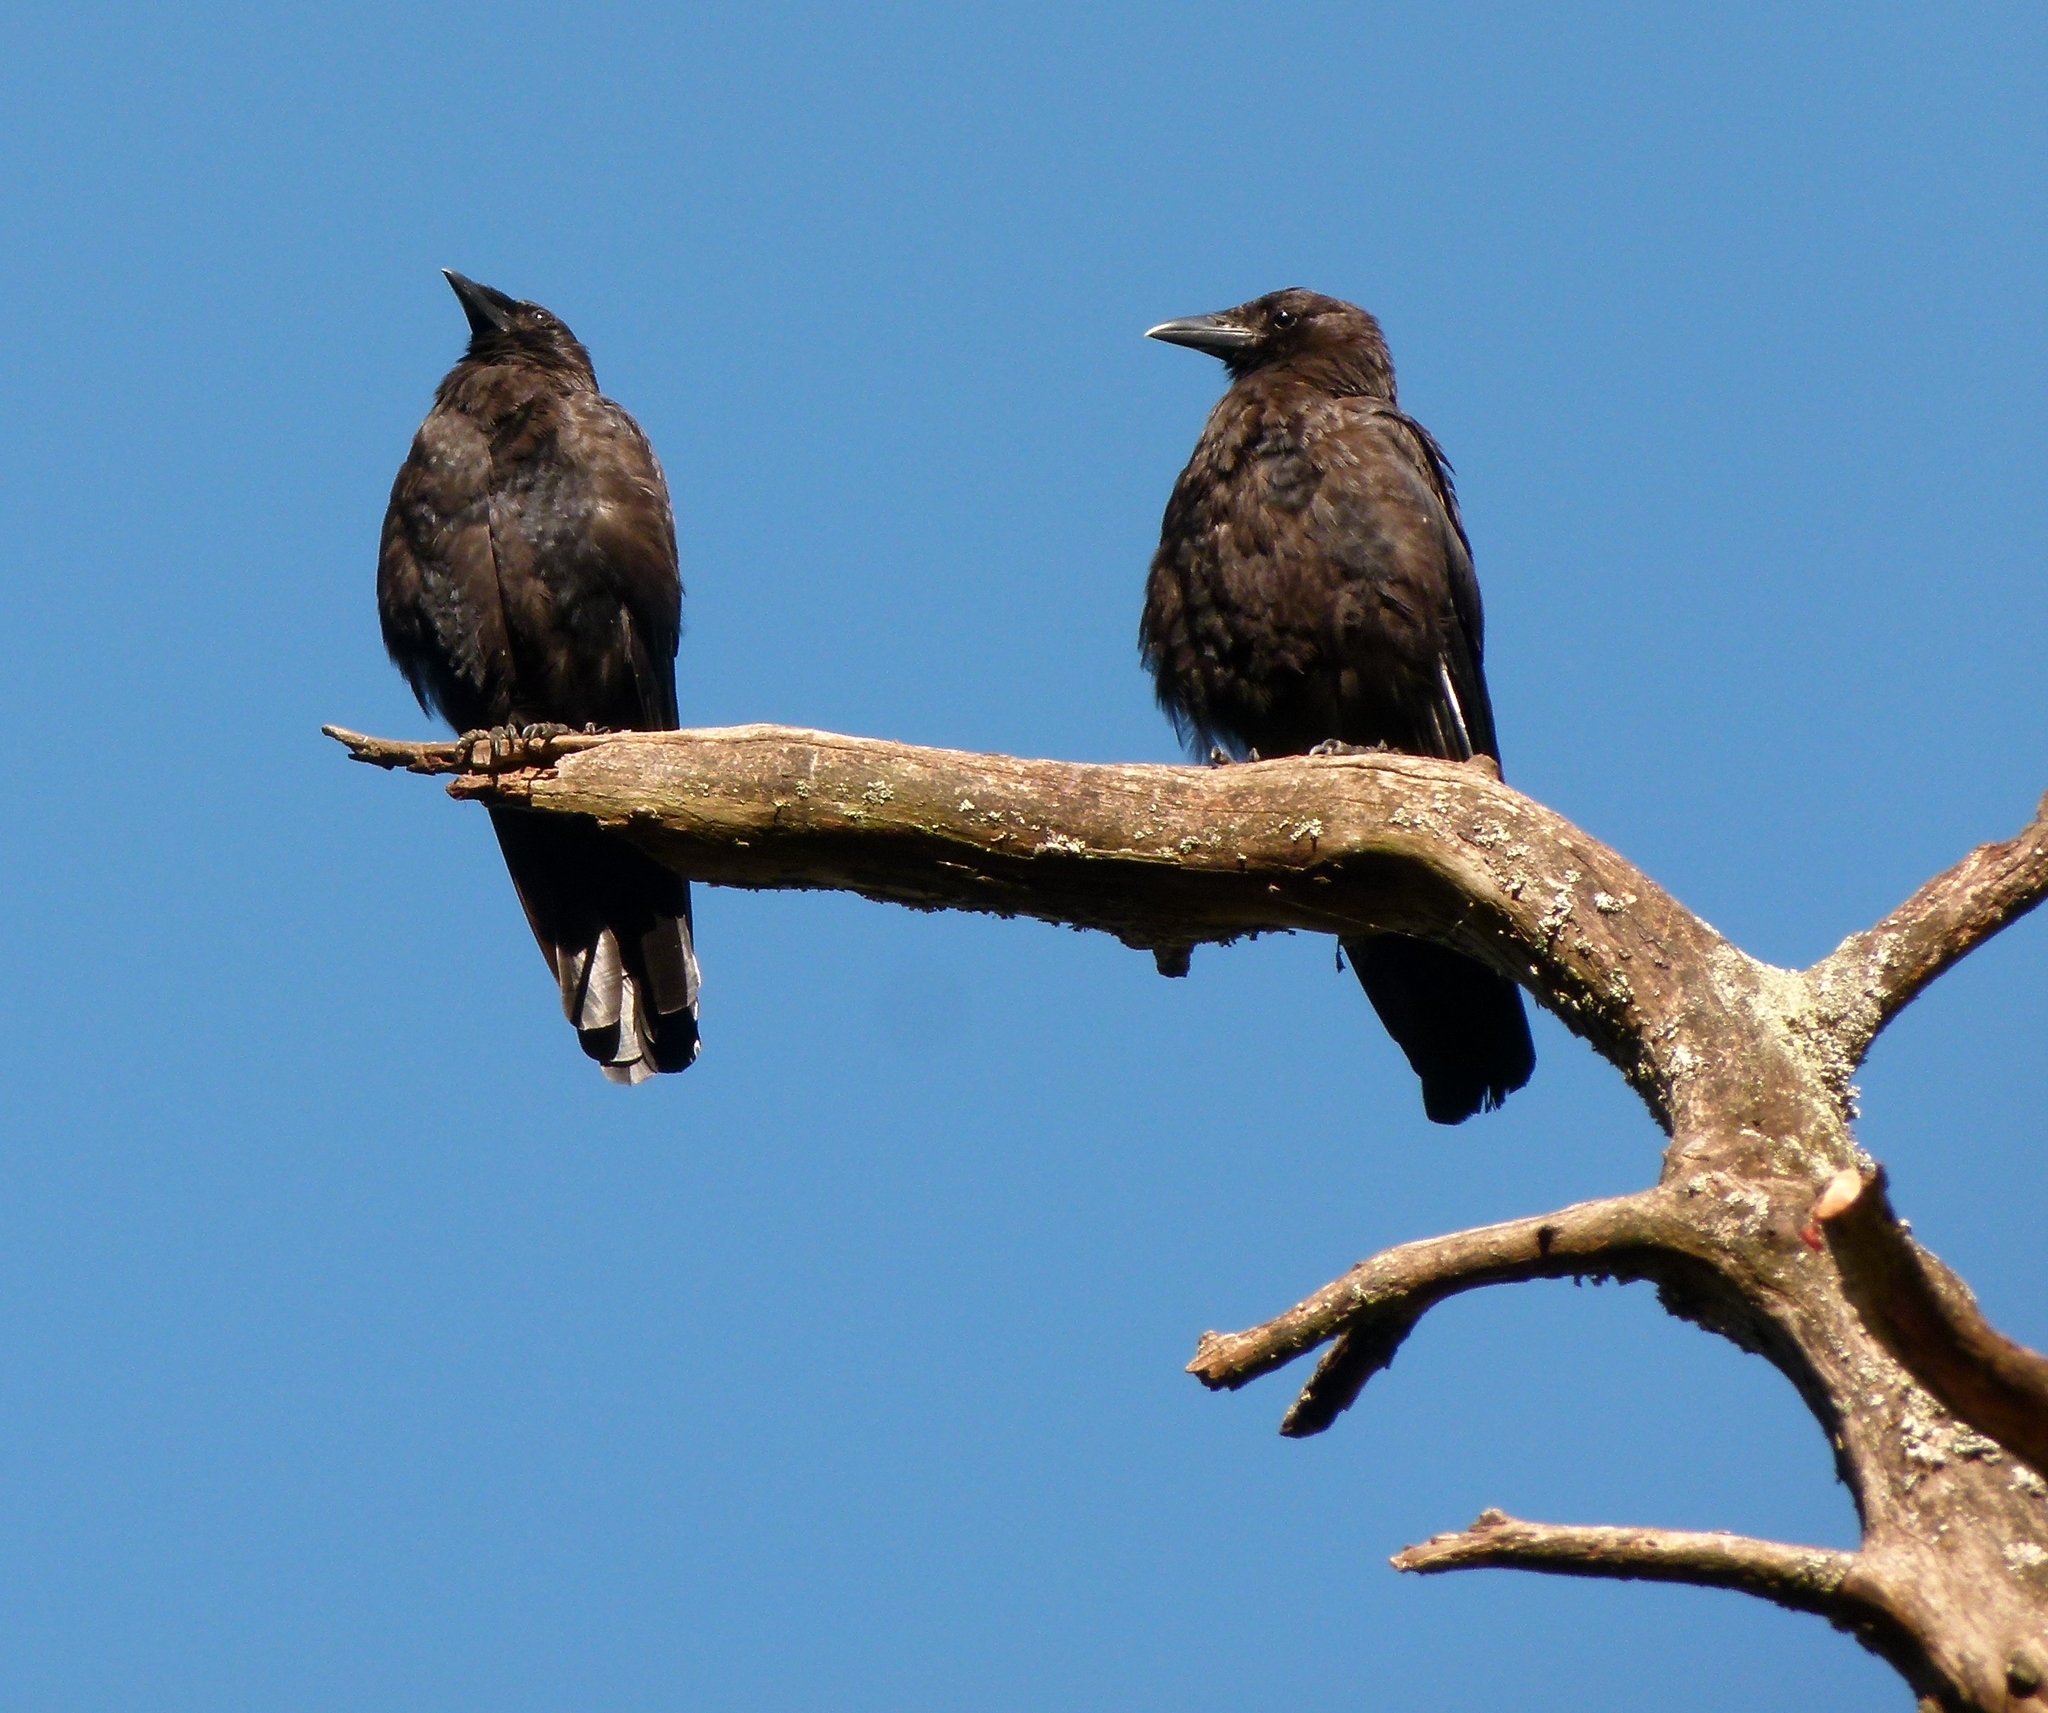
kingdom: Animalia
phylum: Chordata
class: Aves
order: Passeriformes
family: Corvidae
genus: Corvus
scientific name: Corvus brachyrhynchos
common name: American crow
